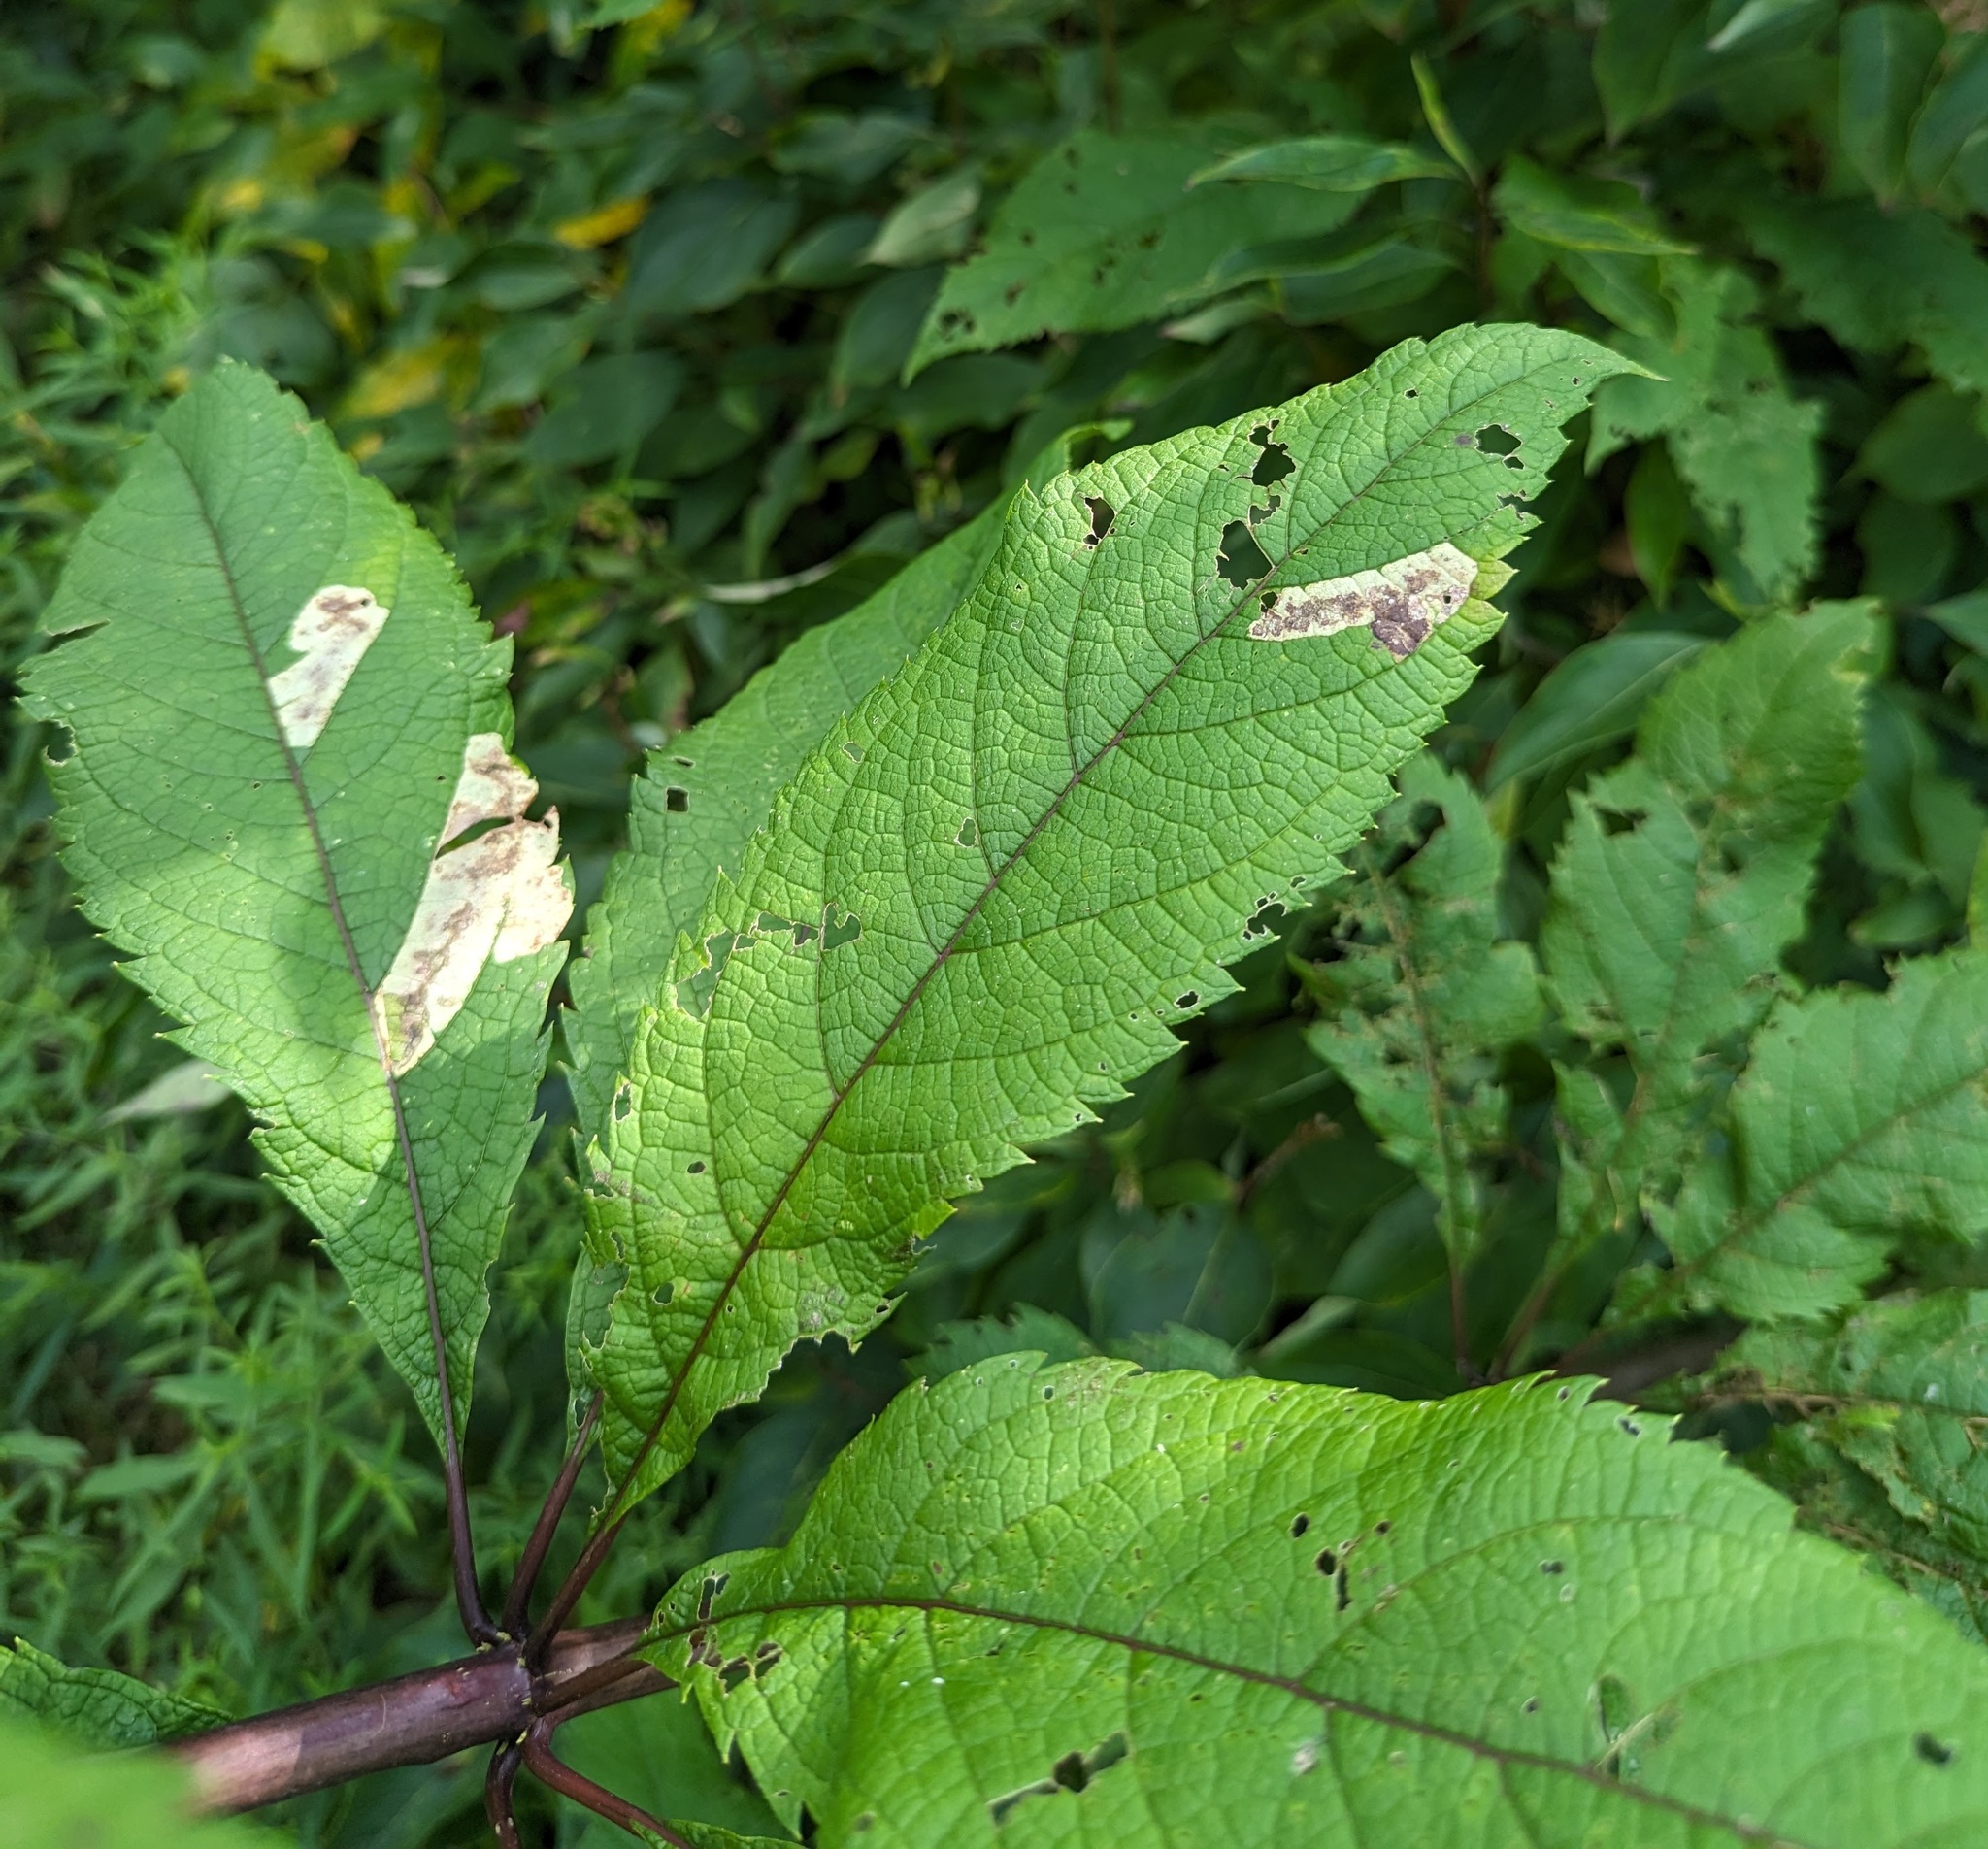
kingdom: Animalia
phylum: Arthropoda
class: Insecta
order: Diptera
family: Agromyzidae
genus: Calycomyza
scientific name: Calycomyza flavinotum
